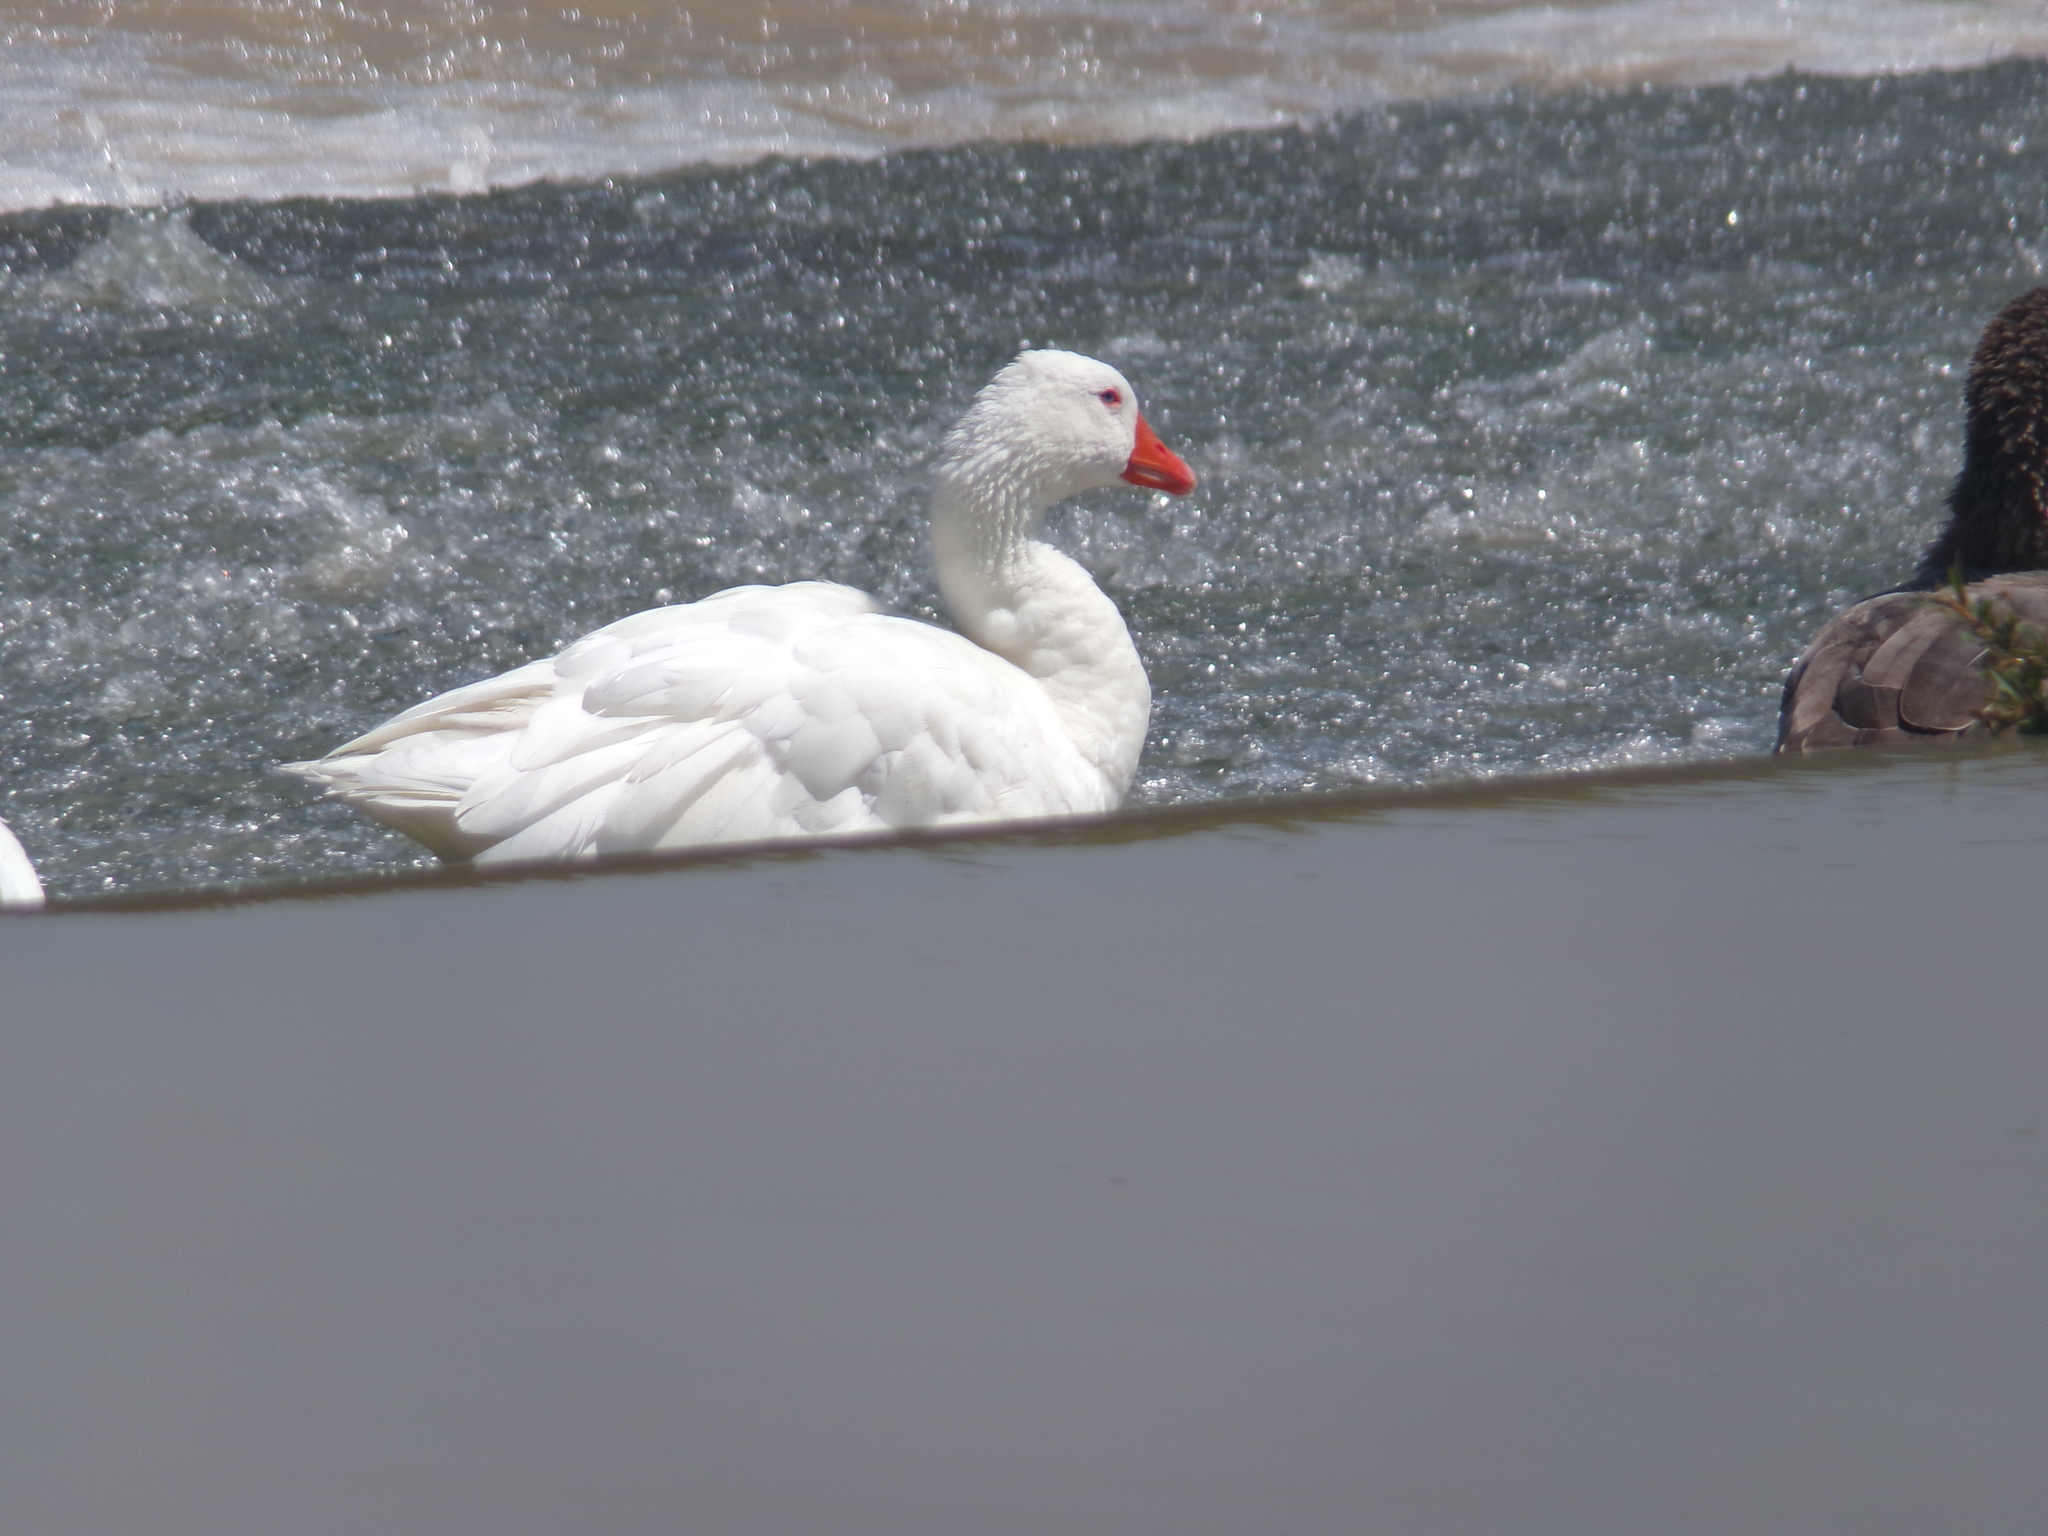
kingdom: Animalia
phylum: Chordata
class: Aves
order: Anseriformes
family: Anatidae
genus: Anser
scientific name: Anser anser
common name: Greylag goose
